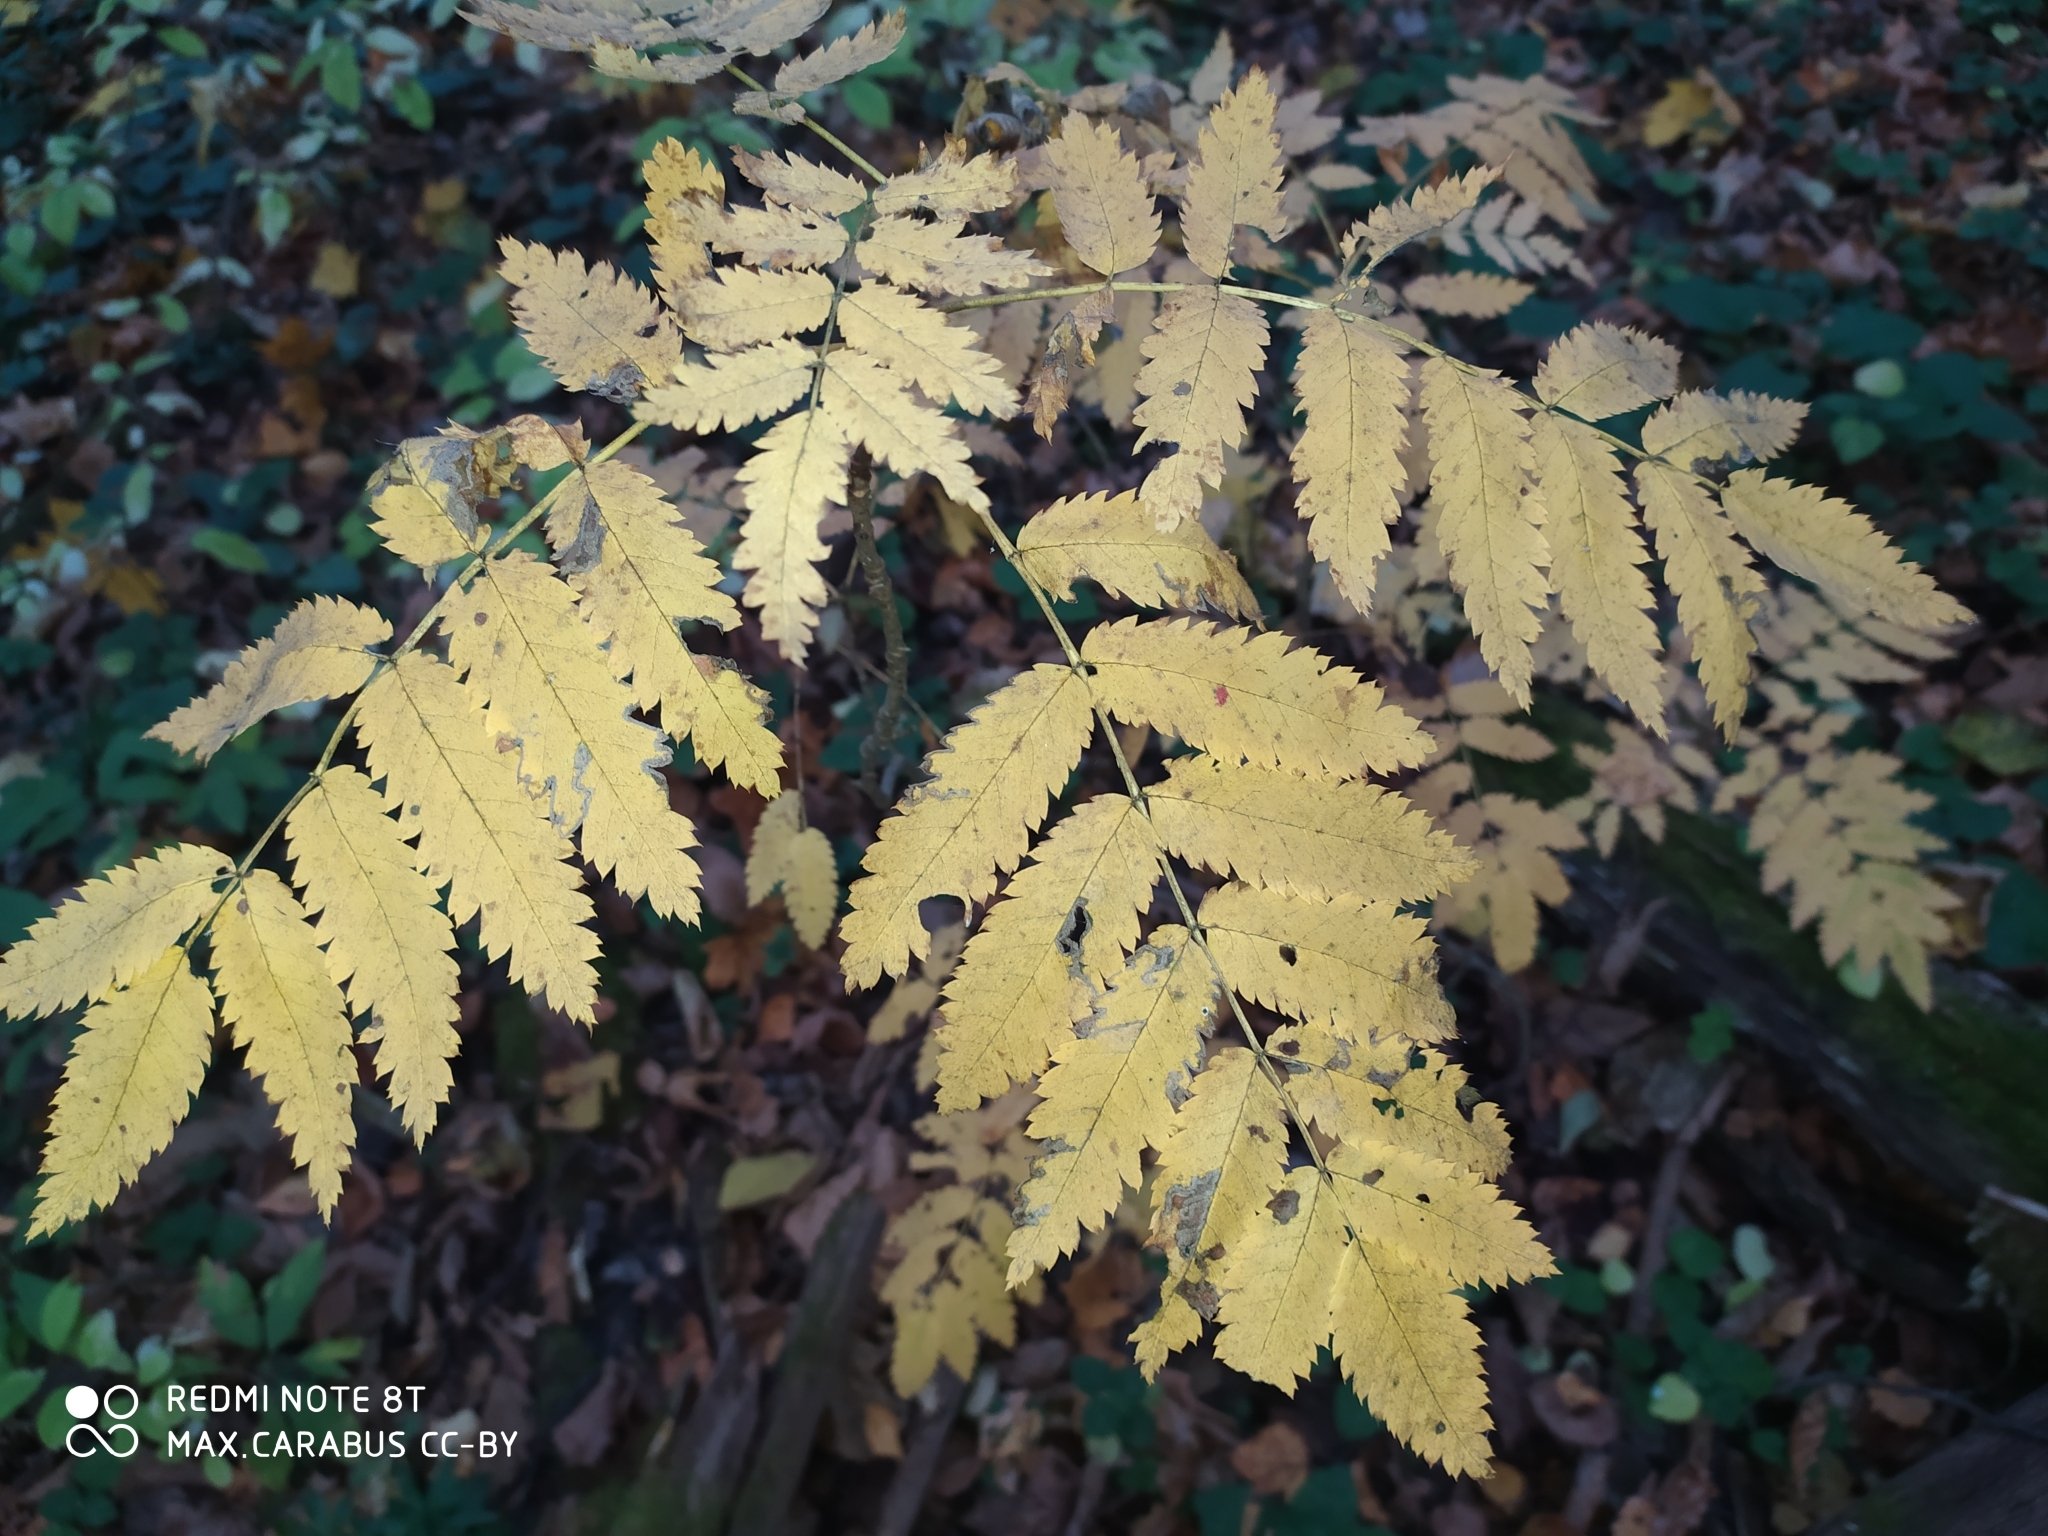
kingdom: Plantae
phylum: Tracheophyta
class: Magnoliopsida
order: Rosales
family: Rosaceae
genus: Sorbus
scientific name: Sorbus aucuparia
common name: Rowan
